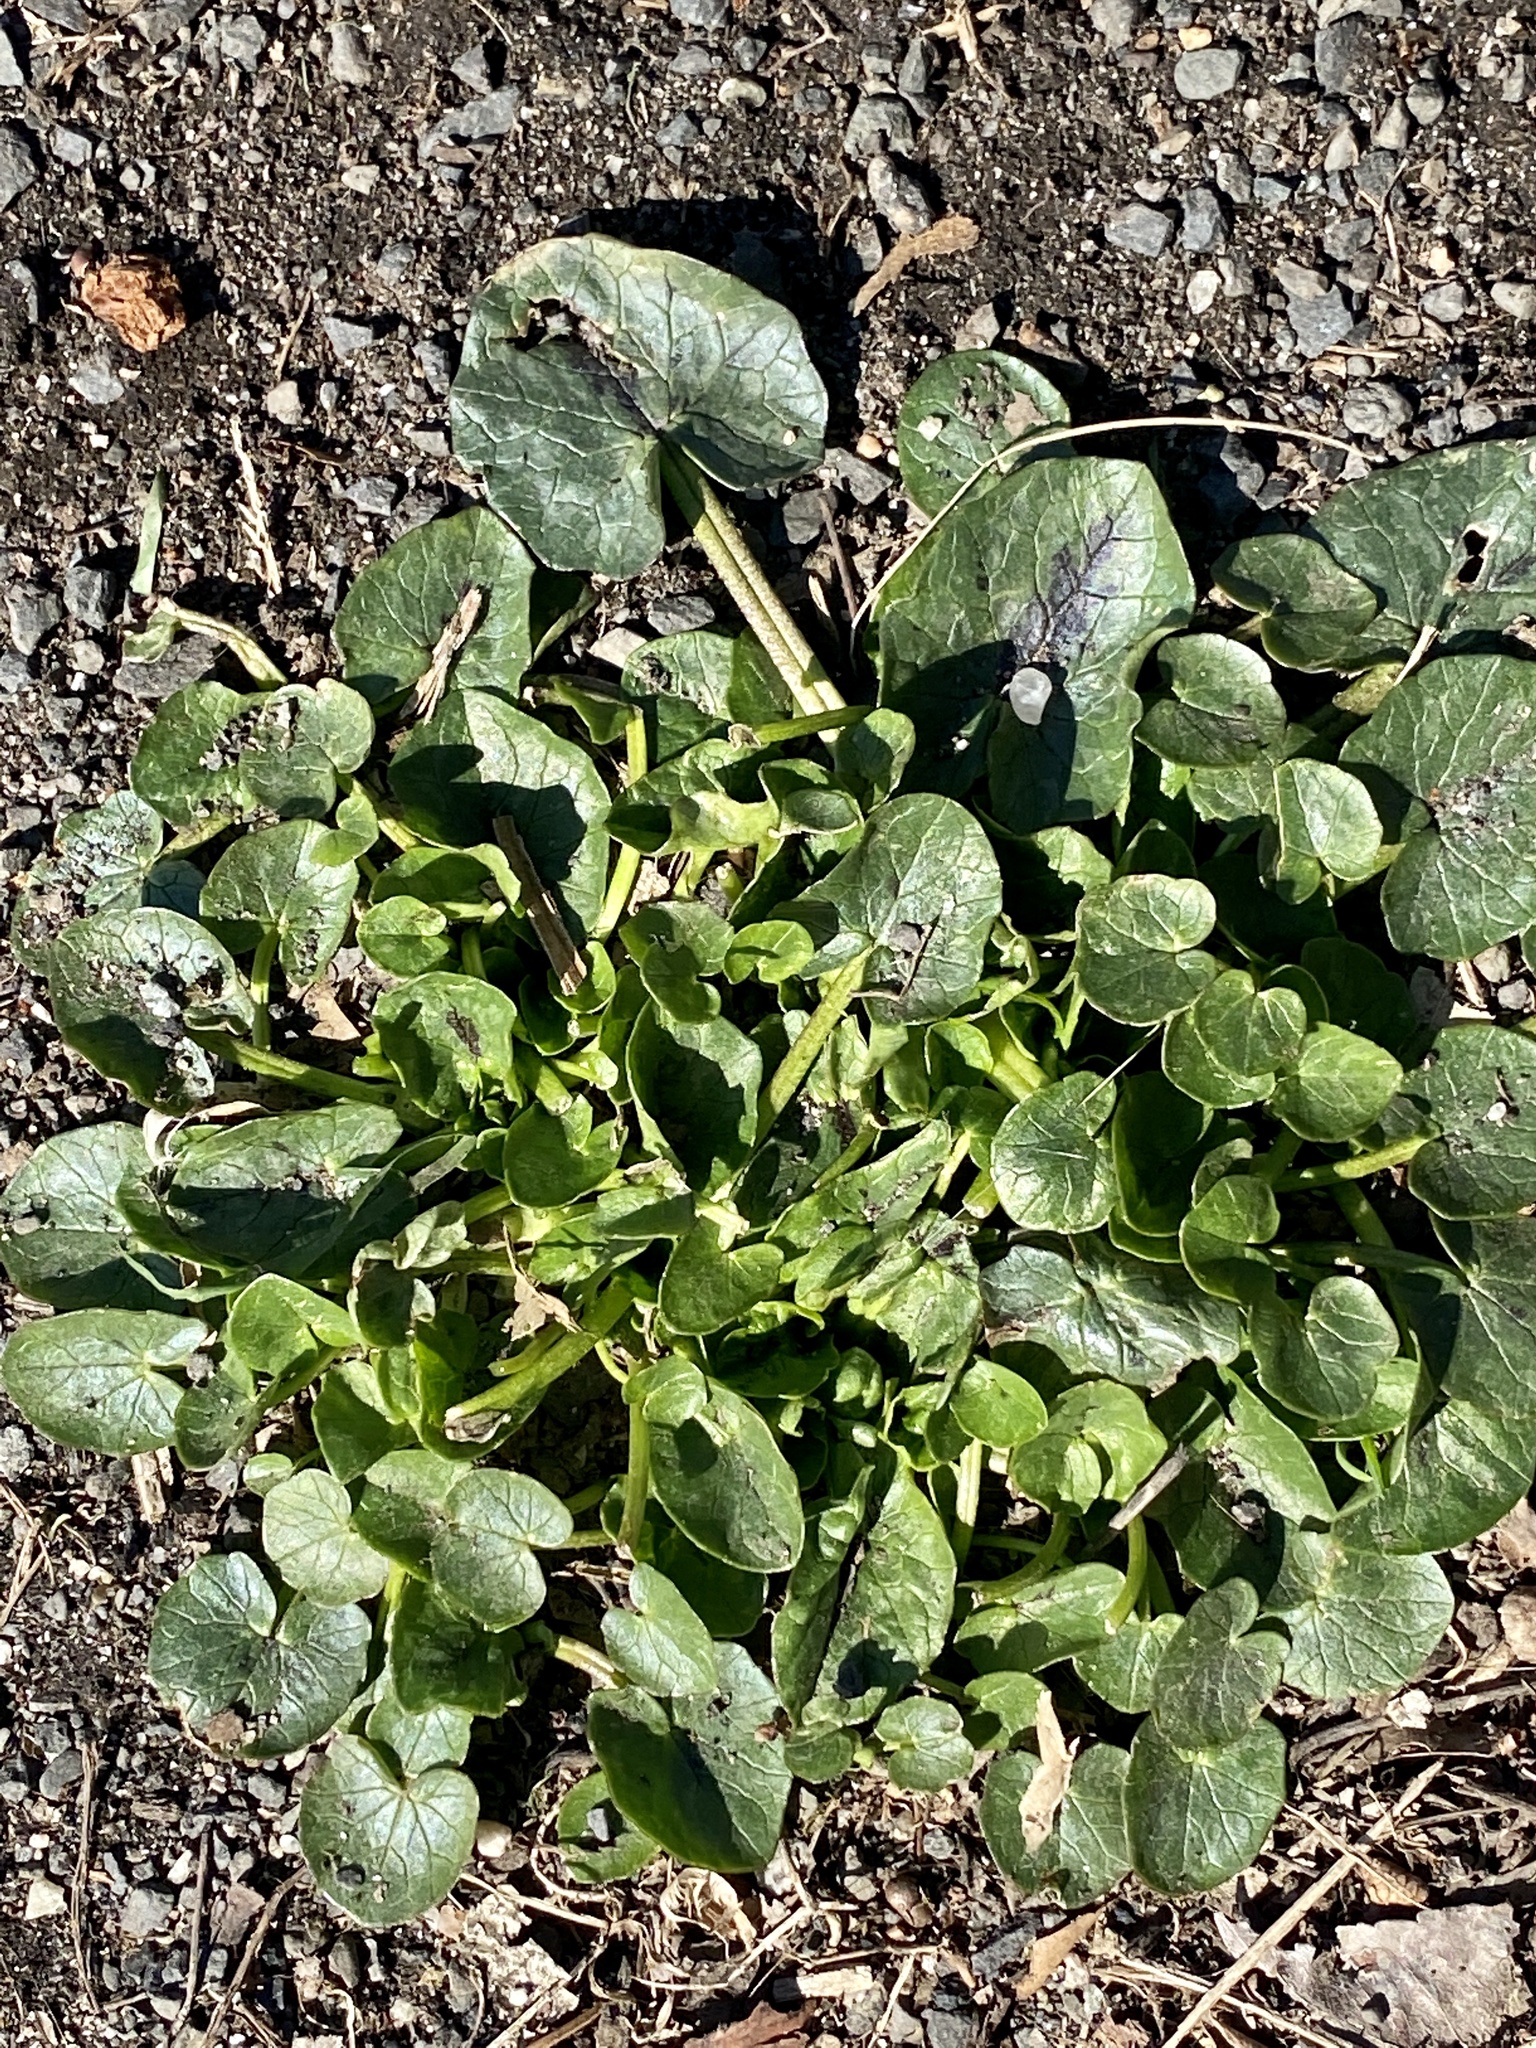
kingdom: Plantae
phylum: Tracheophyta
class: Magnoliopsida
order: Ranunculales
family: Ranunculaceae
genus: Ficaria
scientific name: Ficaria verna
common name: Lesser celandine
